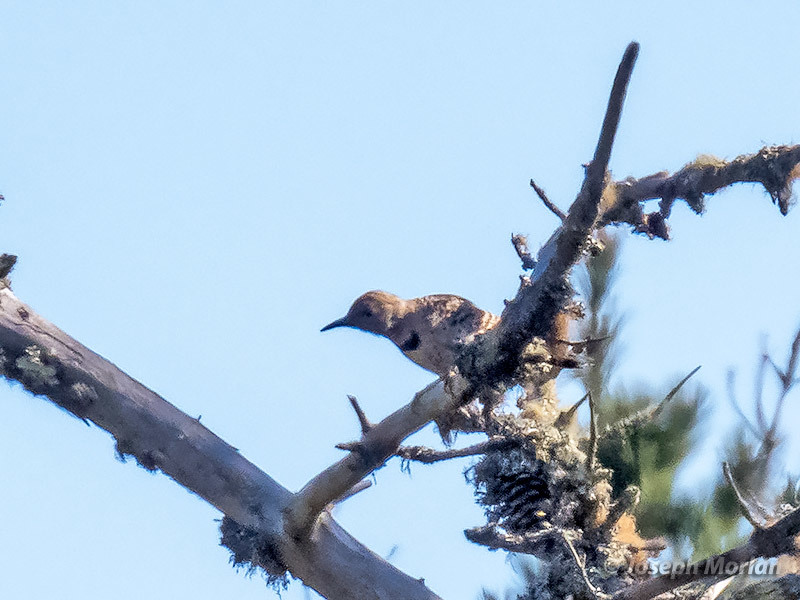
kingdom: Animalia
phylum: Chordata
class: Aves
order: Piciformes
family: Picidae
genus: Colaptes
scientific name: Colaptes auratus
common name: Northern flicker
